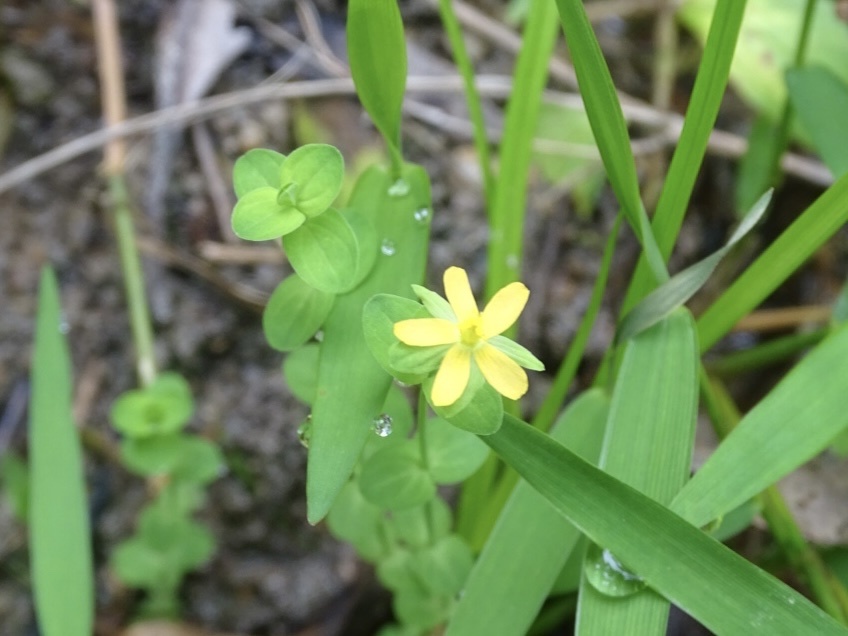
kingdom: Plantae
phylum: Tracheophyta
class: Magnoliopsida
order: Malpighiales
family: Hypericaceae
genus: Hypericum
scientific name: Hypericum japonicum
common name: Matted st. john's-wort
